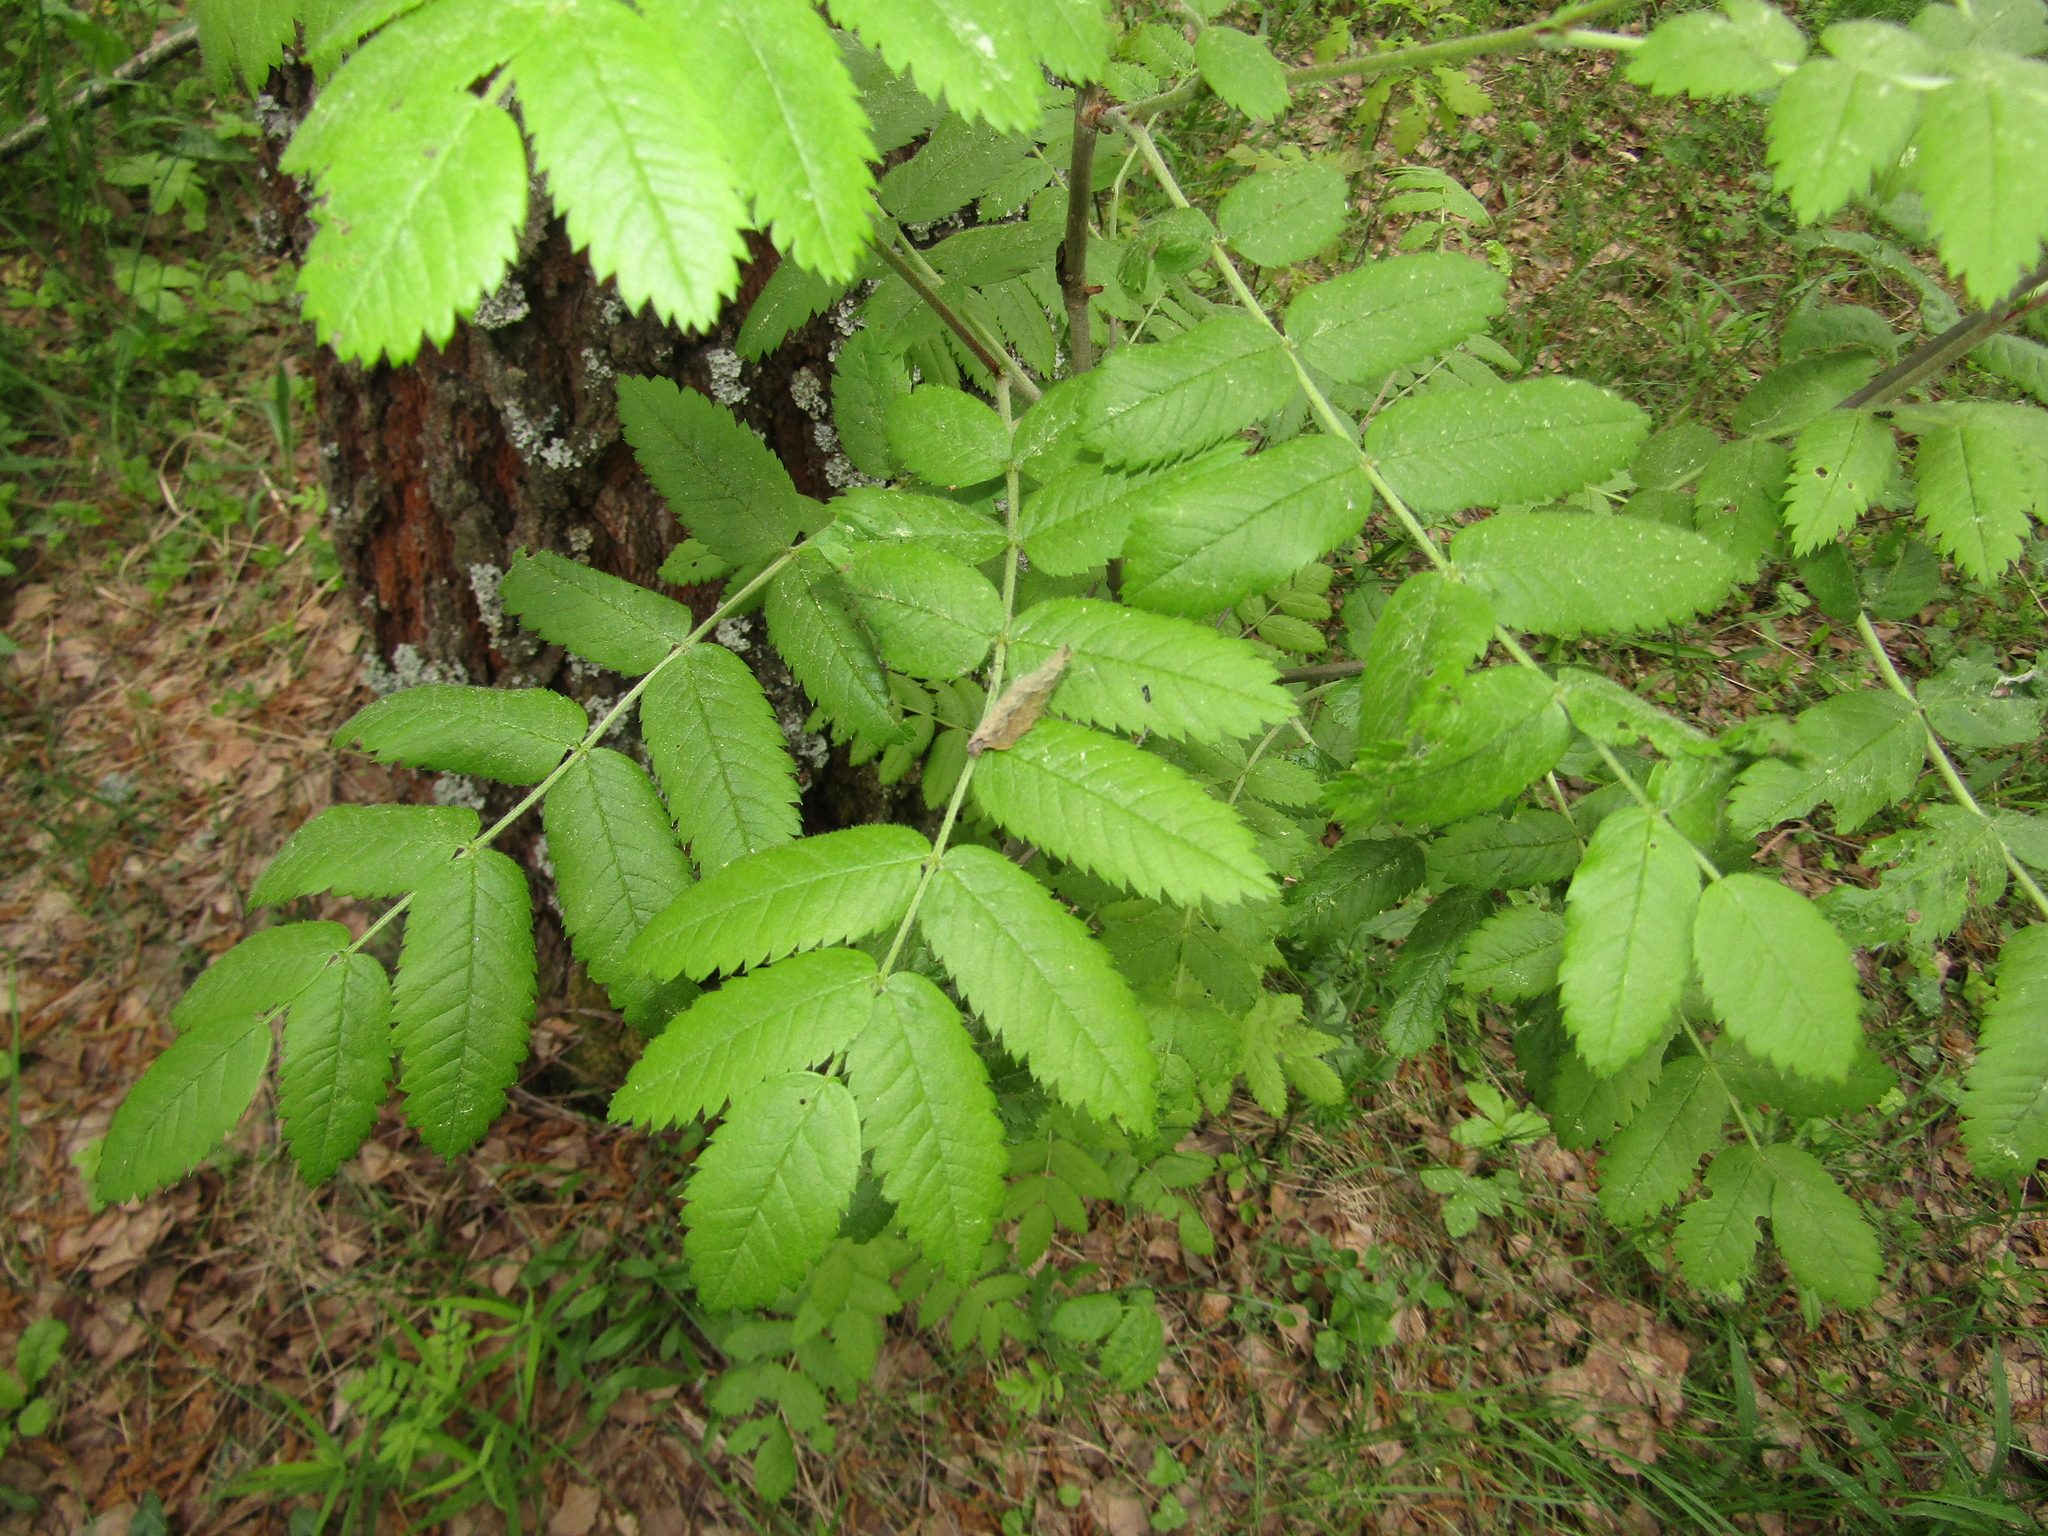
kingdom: Plantae
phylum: Tracheophyta
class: Magnoliopsida
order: Rosales
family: Rosaceae
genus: Sorbus
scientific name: Sorbus aucuparia
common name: Rowan
